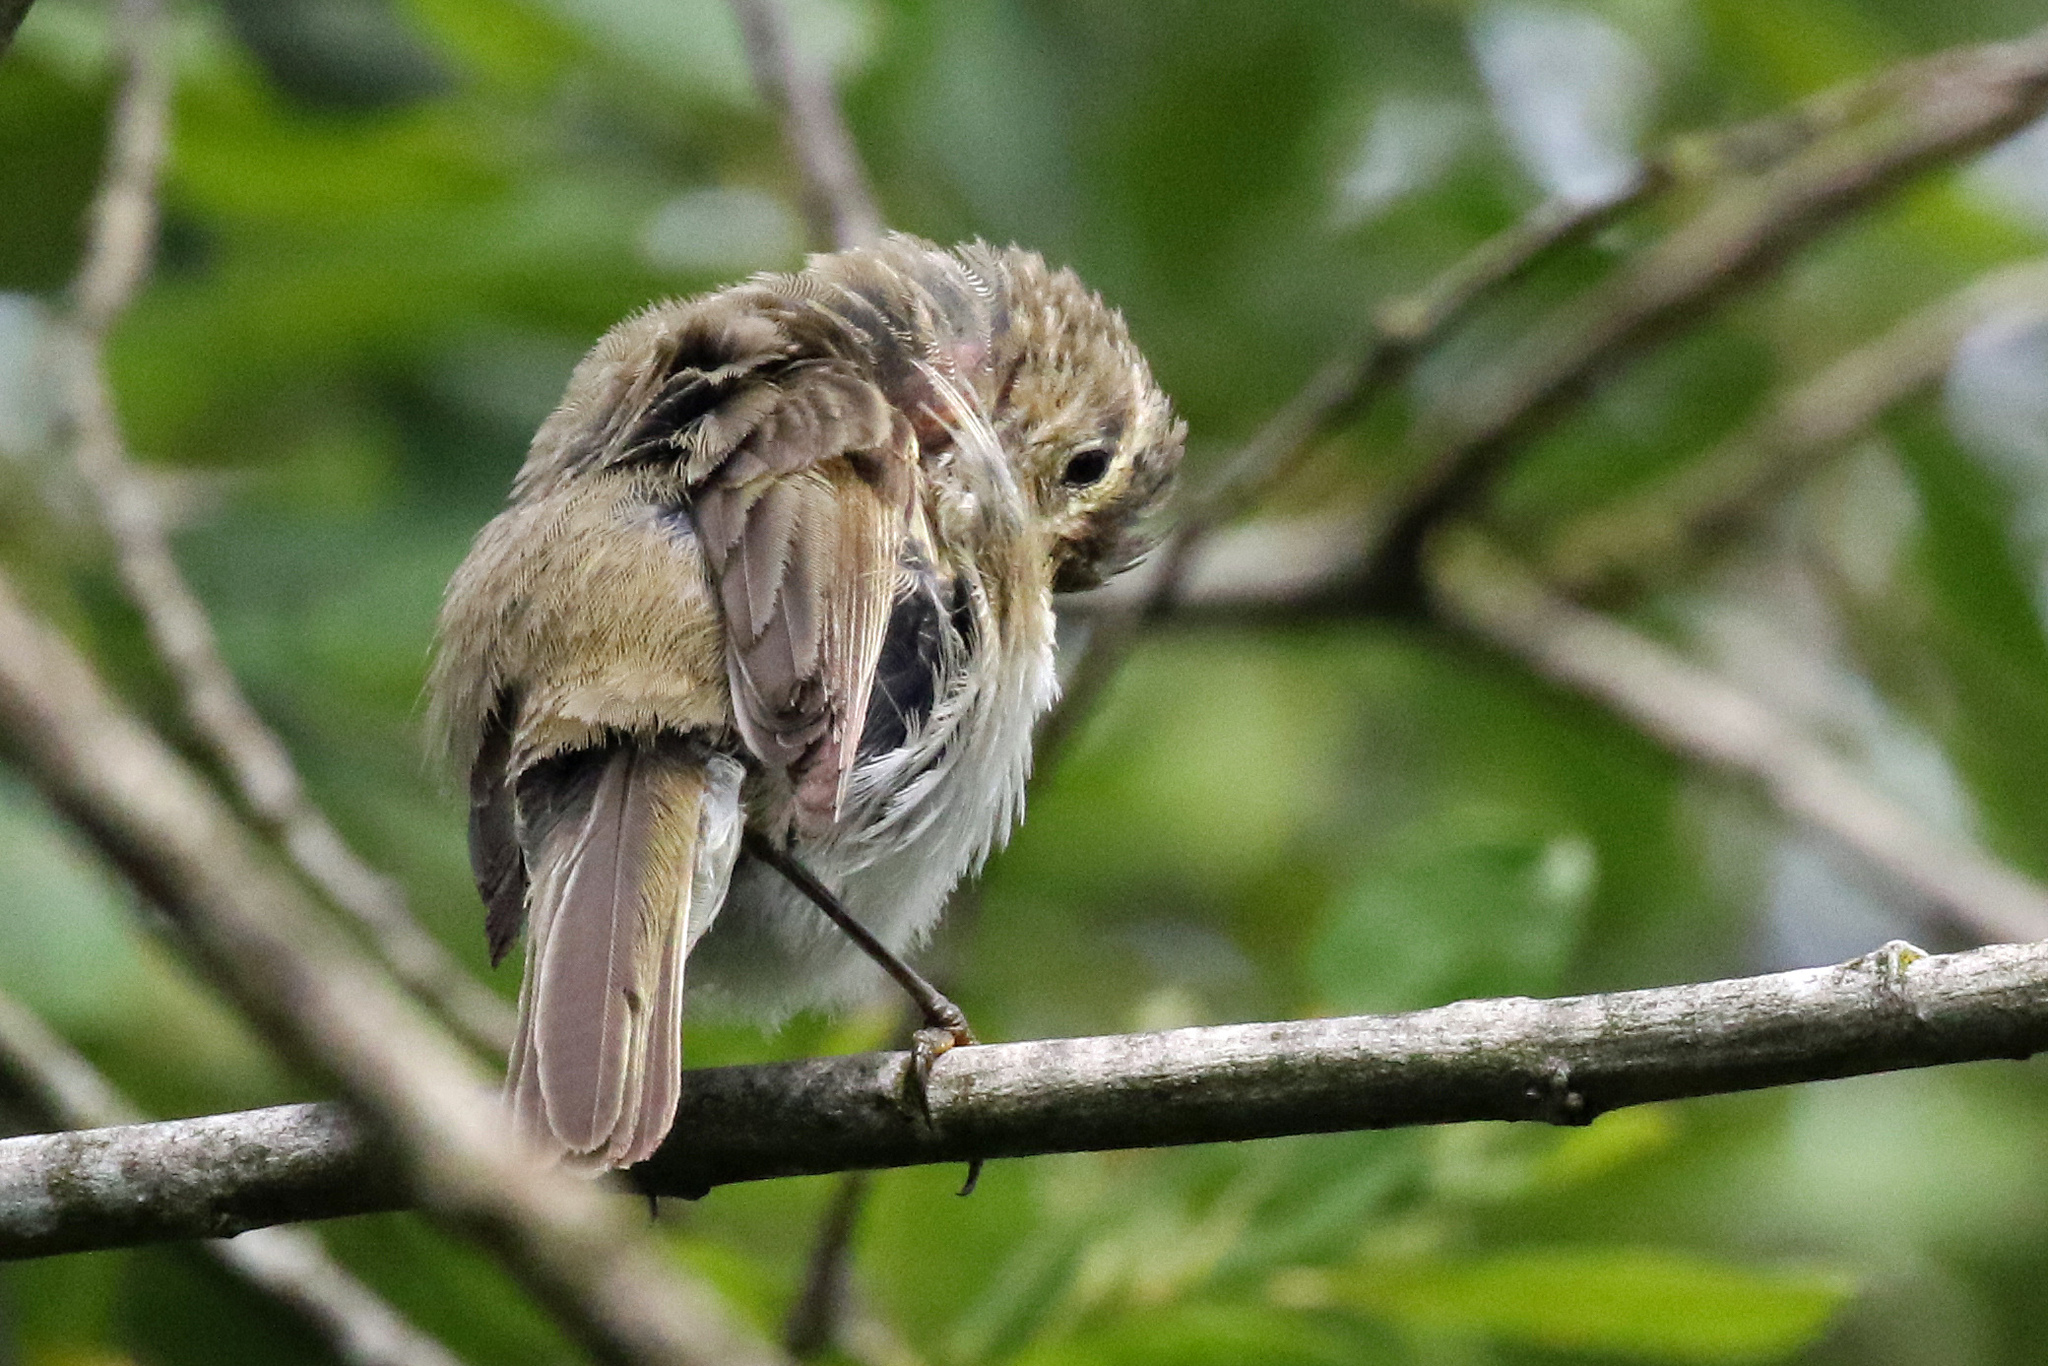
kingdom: Animalia
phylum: Chordata
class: Aves
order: Passeriformes
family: Phylloscopidae
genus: Phylloscopus
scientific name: Phylloscopus collybita
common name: Common chiffchaff
